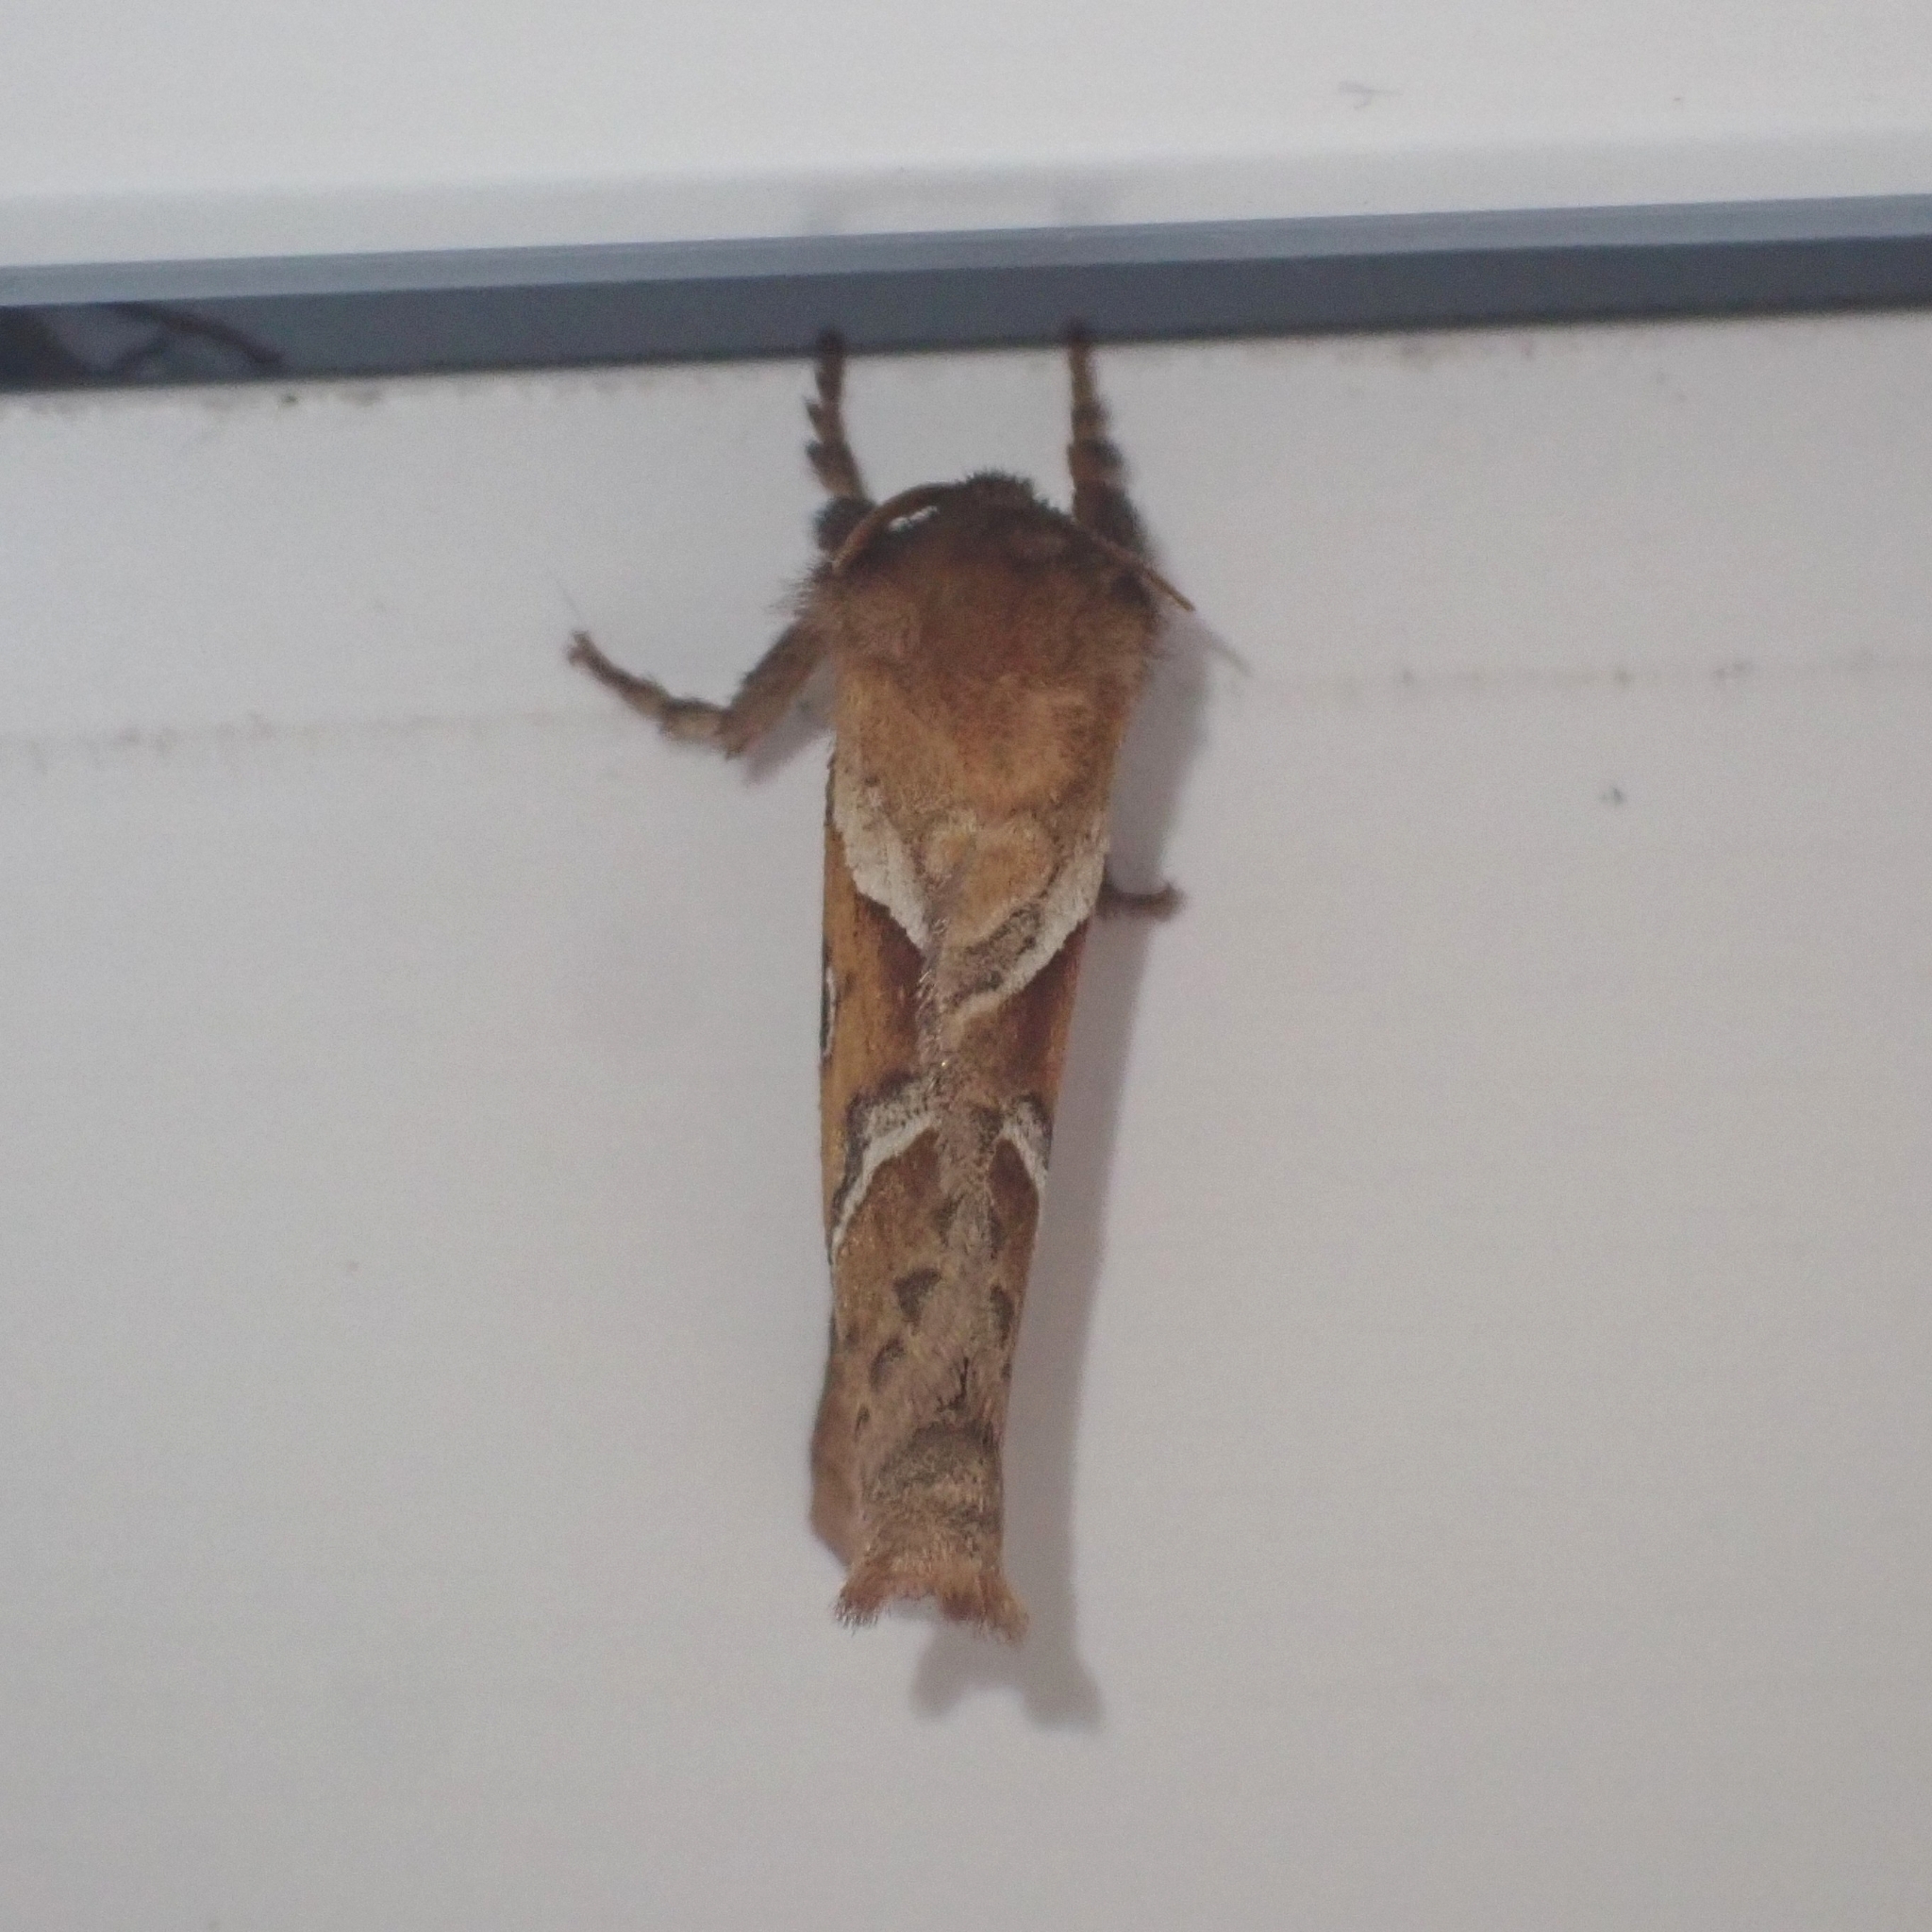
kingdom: Animalia
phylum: Arthropoda
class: Insecta
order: Lepidoptera
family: Hepialidae
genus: Triodia
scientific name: Triodia sylvina
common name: Orange swift
